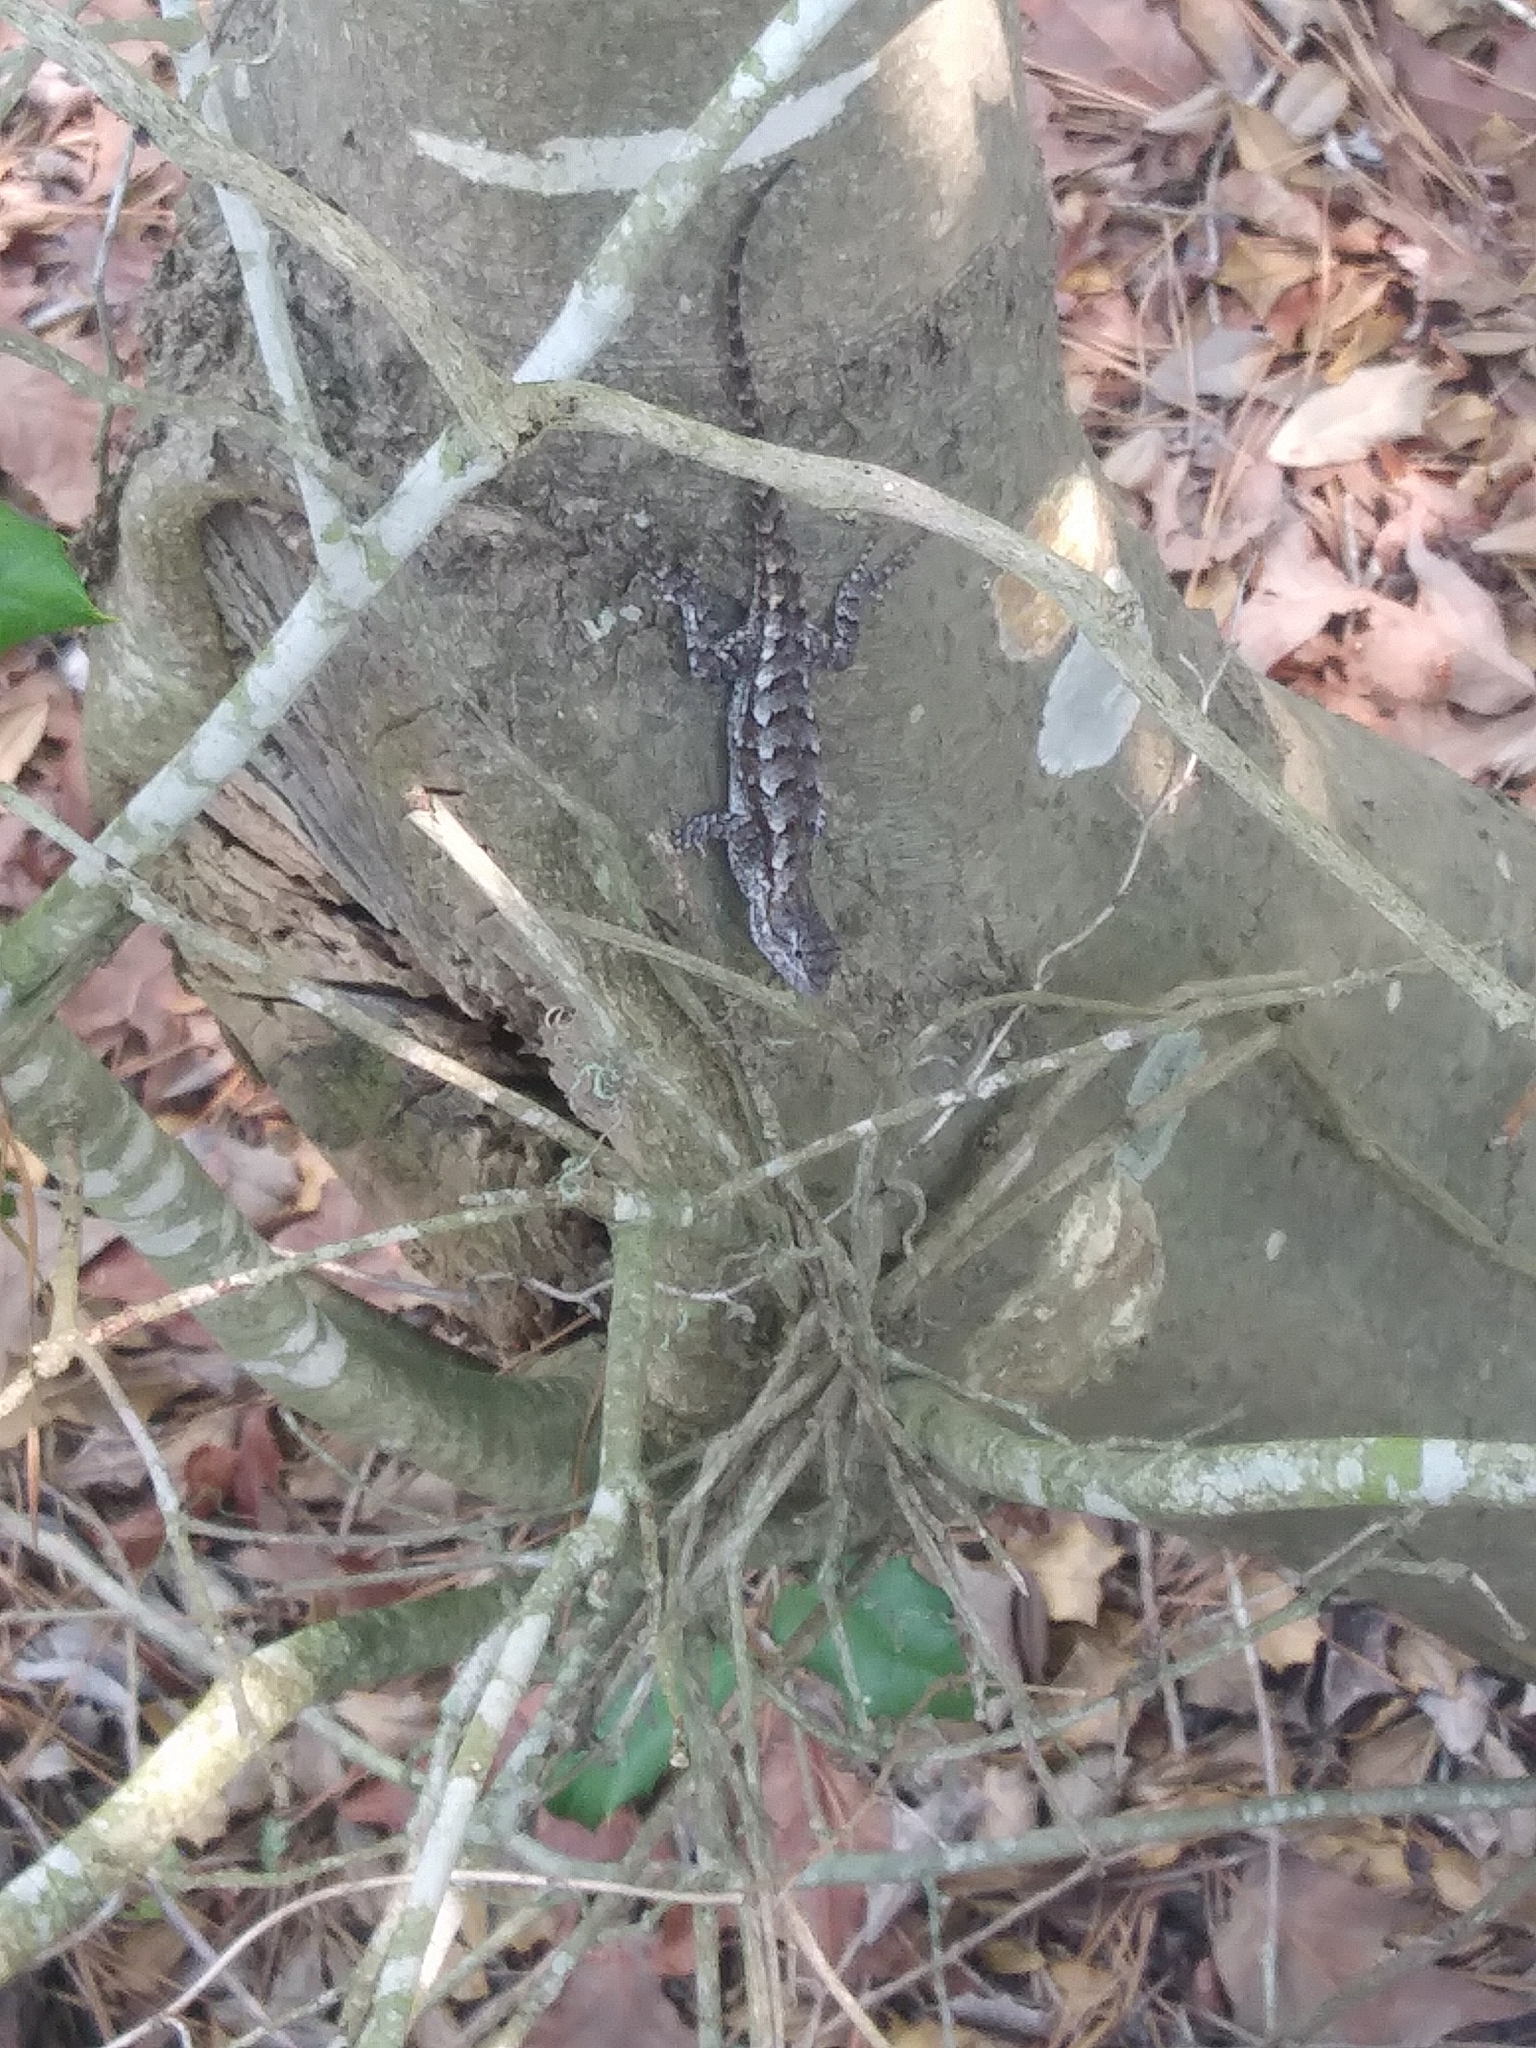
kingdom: Animalia
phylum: Chordata
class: Squamata
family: Phrynosomatidae
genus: Sceloporus
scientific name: Sceloporus undulatus
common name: Eastern fence lizard
